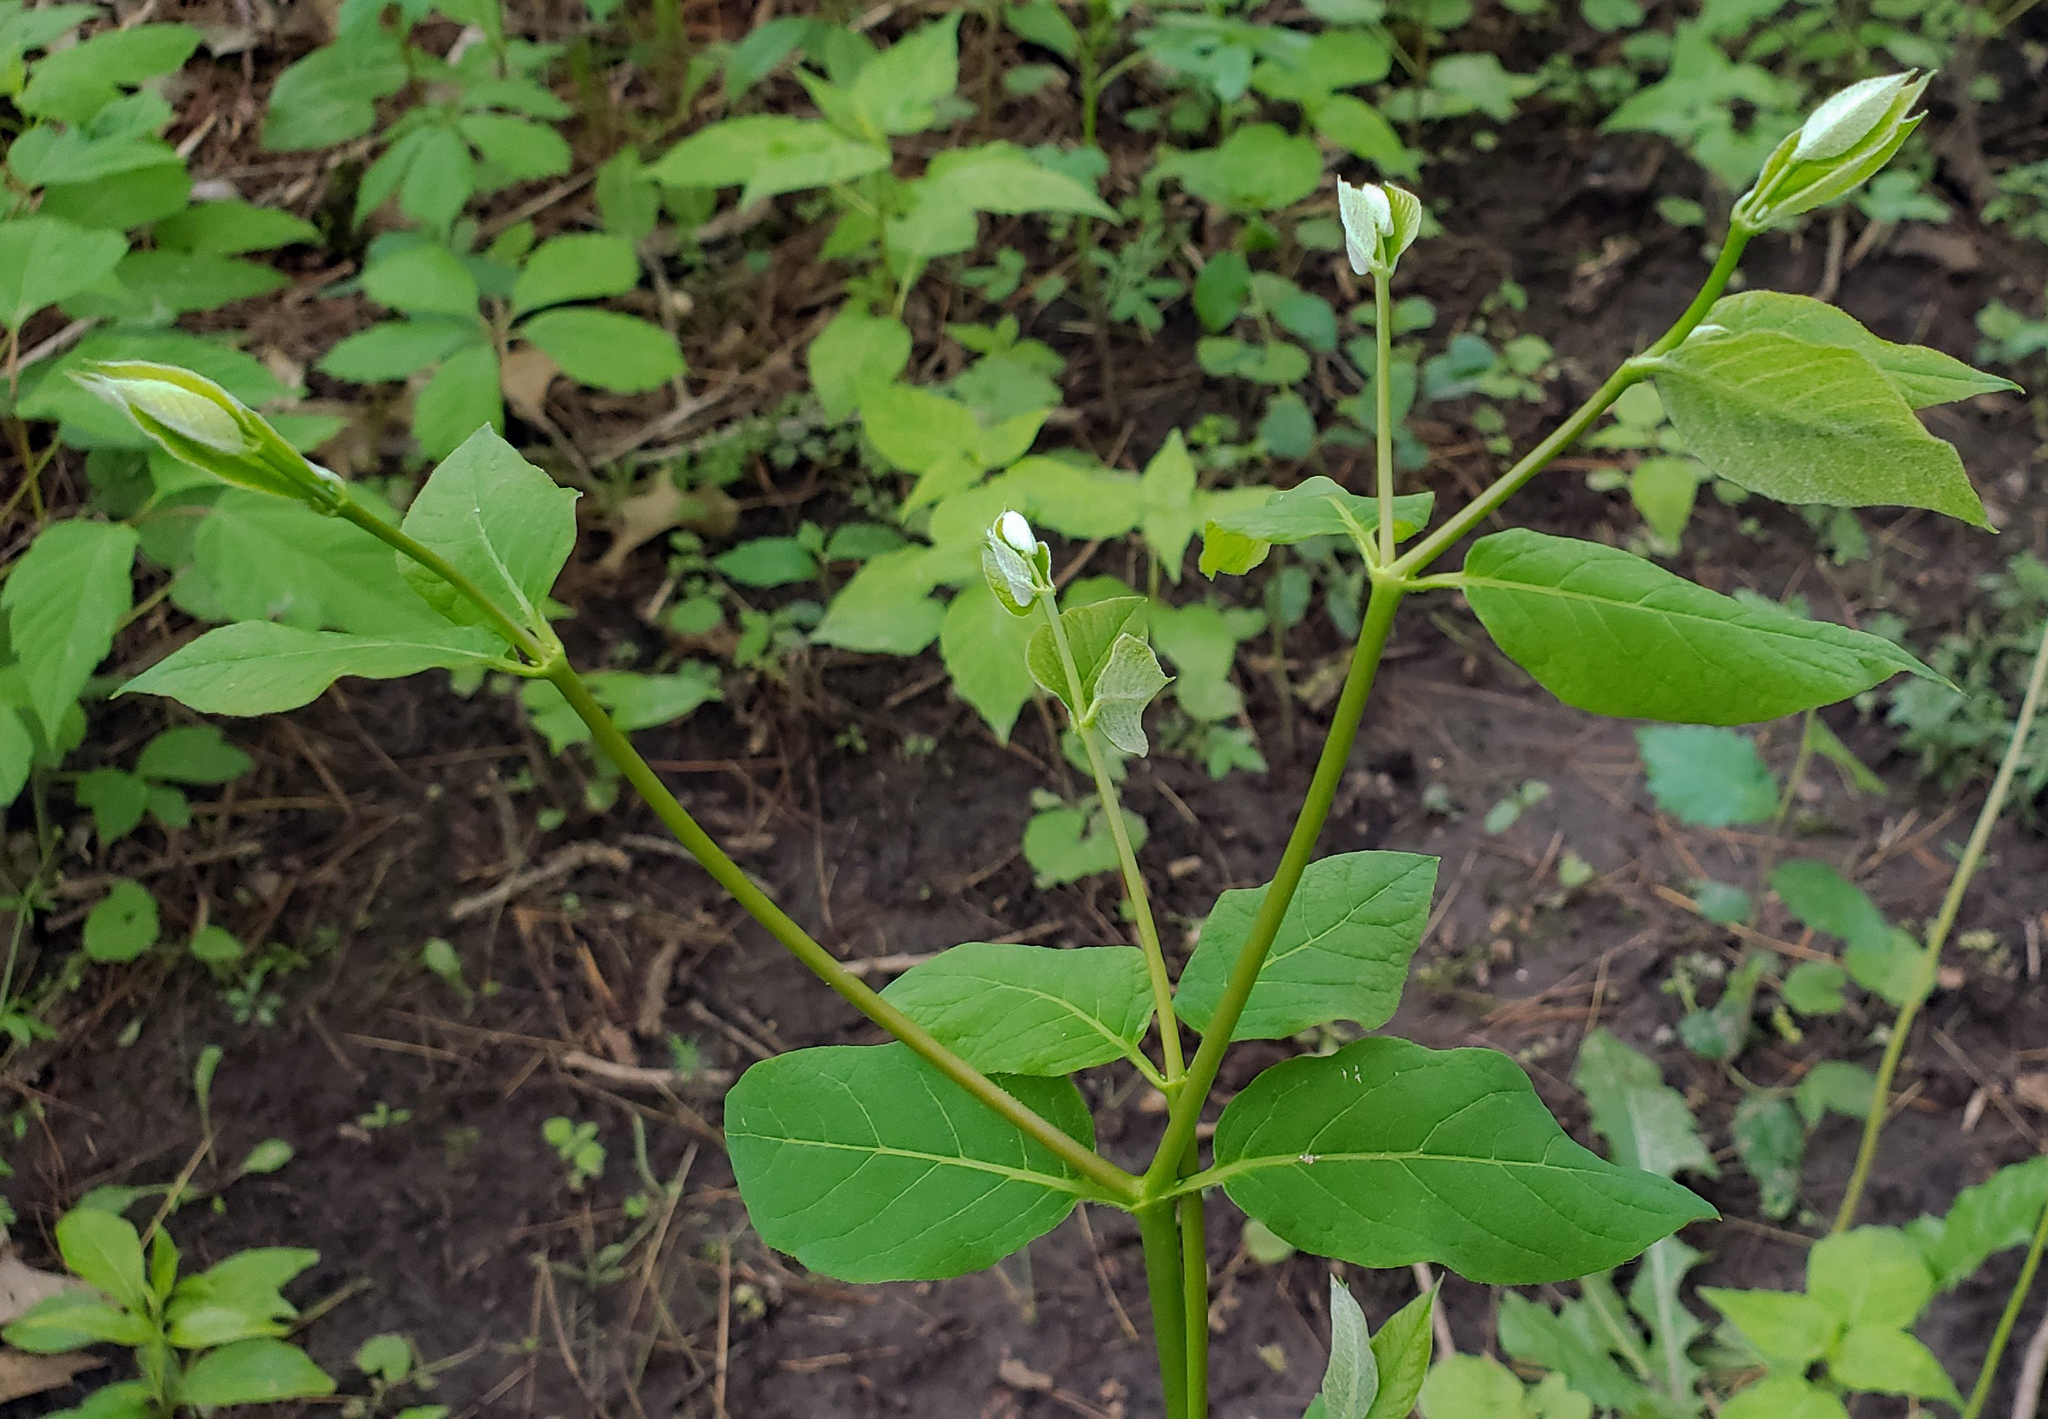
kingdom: Plantae
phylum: Tracheophyta
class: Magnoliopsida
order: Gentianales
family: Apocynaceae
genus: Apocynum
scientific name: Apocynum androsaemifolium
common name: Spreading dogbane
